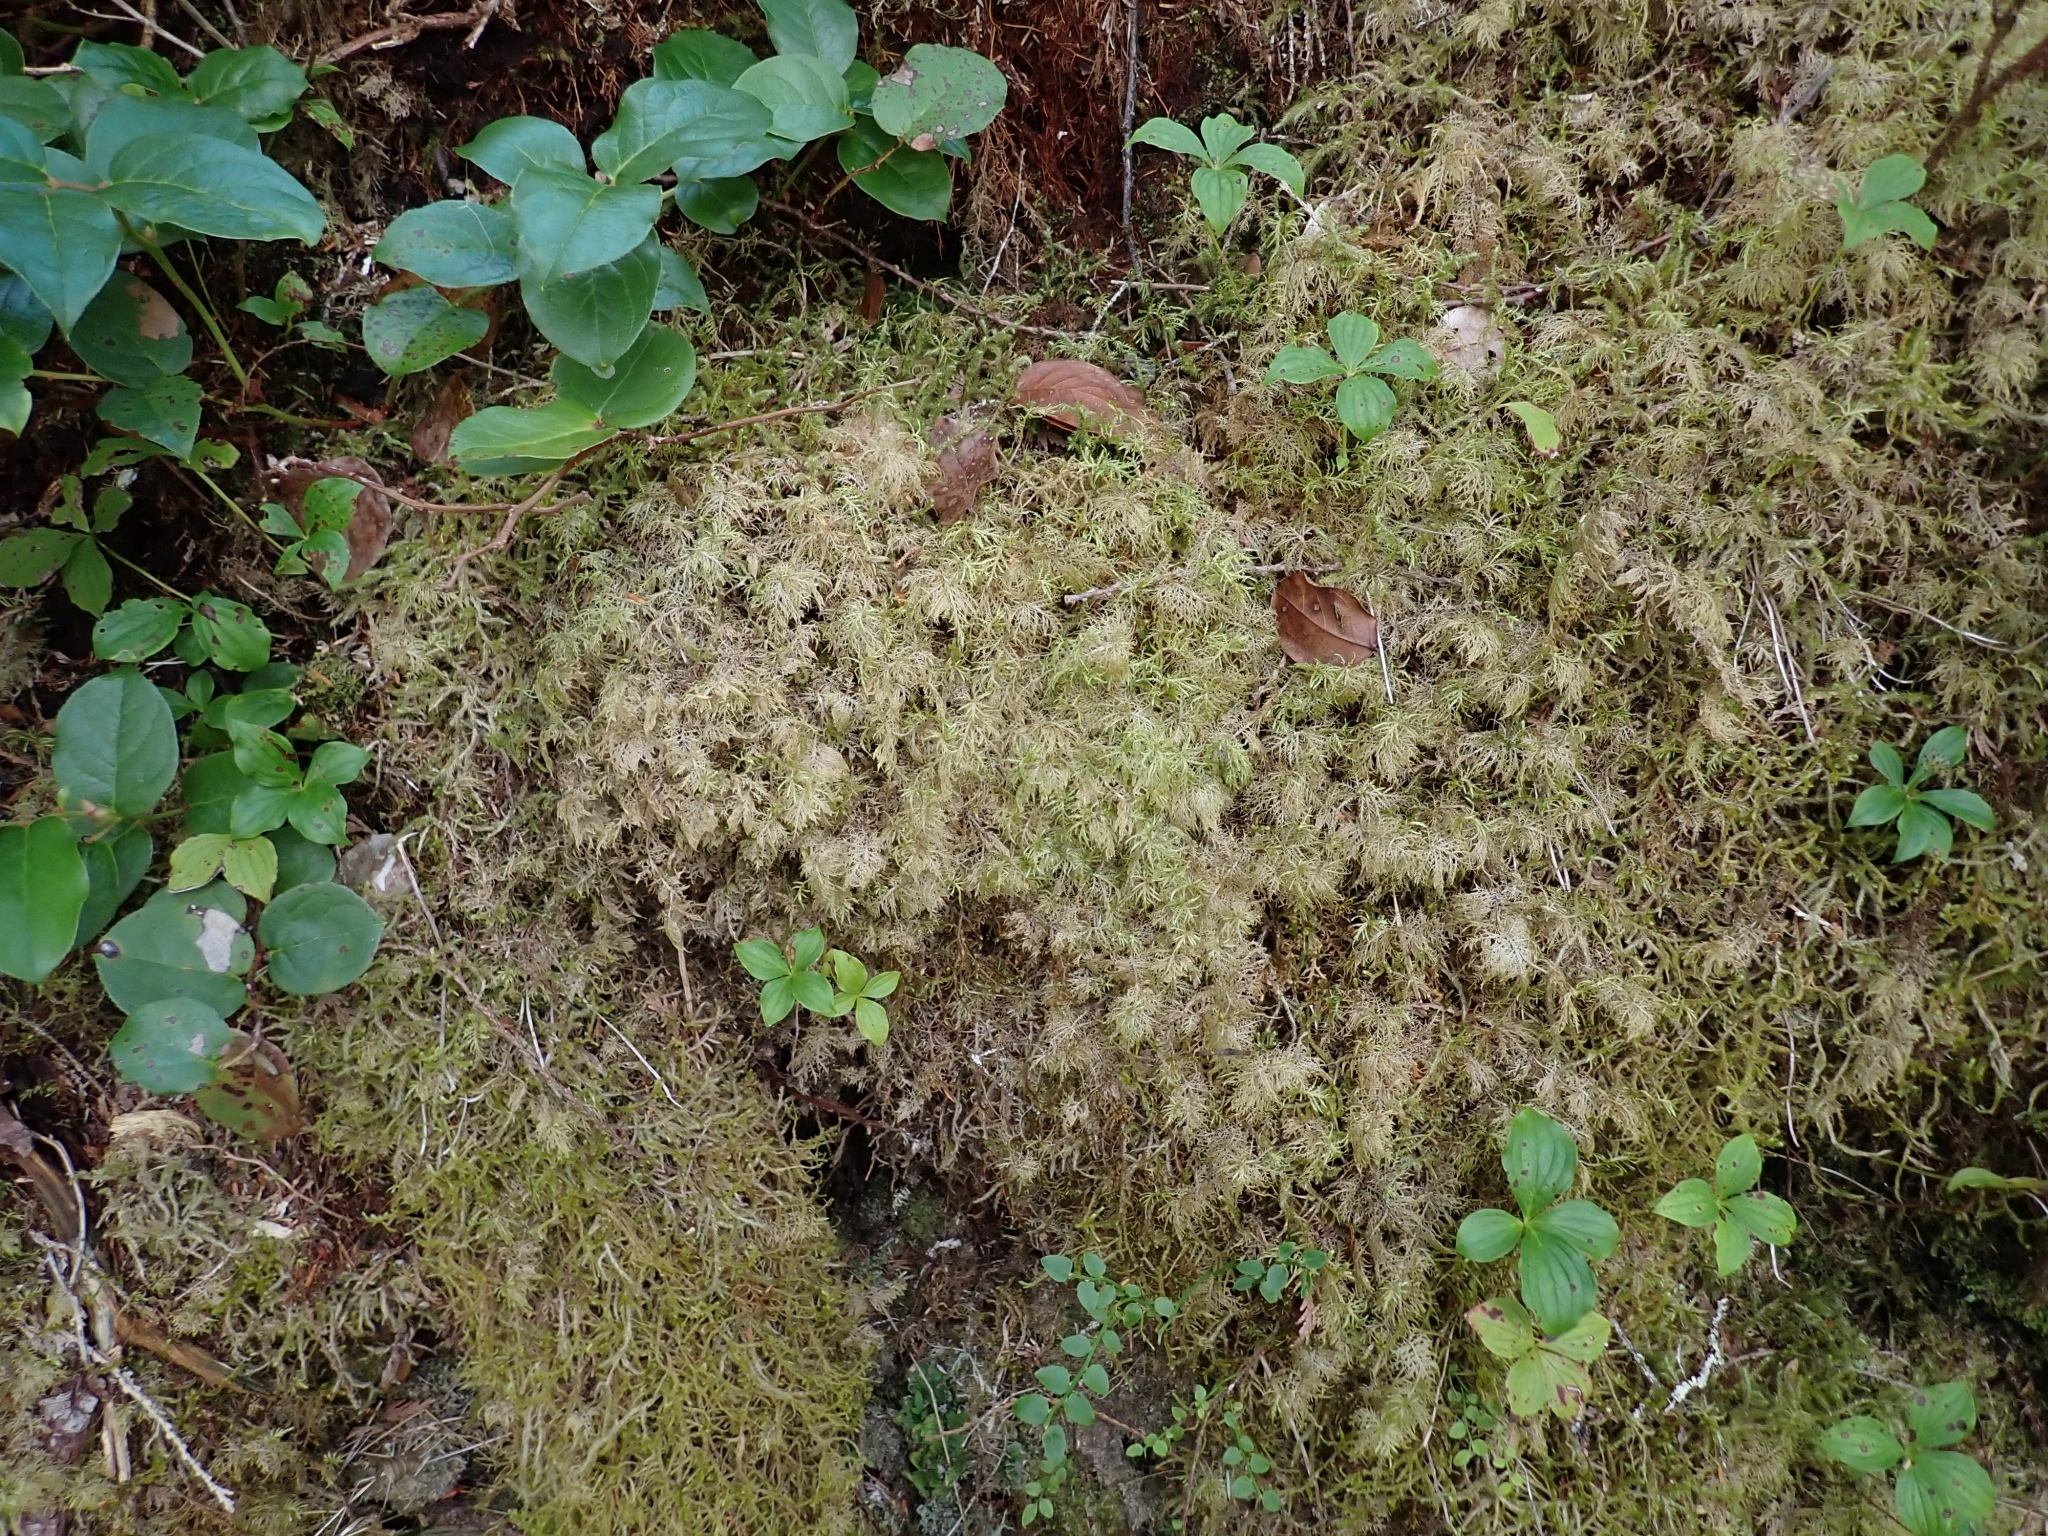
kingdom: Plantae
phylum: Bryophyta
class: Bryopsida
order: Hypnales
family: Hylocomiaceae
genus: Hylocomium
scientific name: Hylocomium splendens
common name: Stairstep moss
